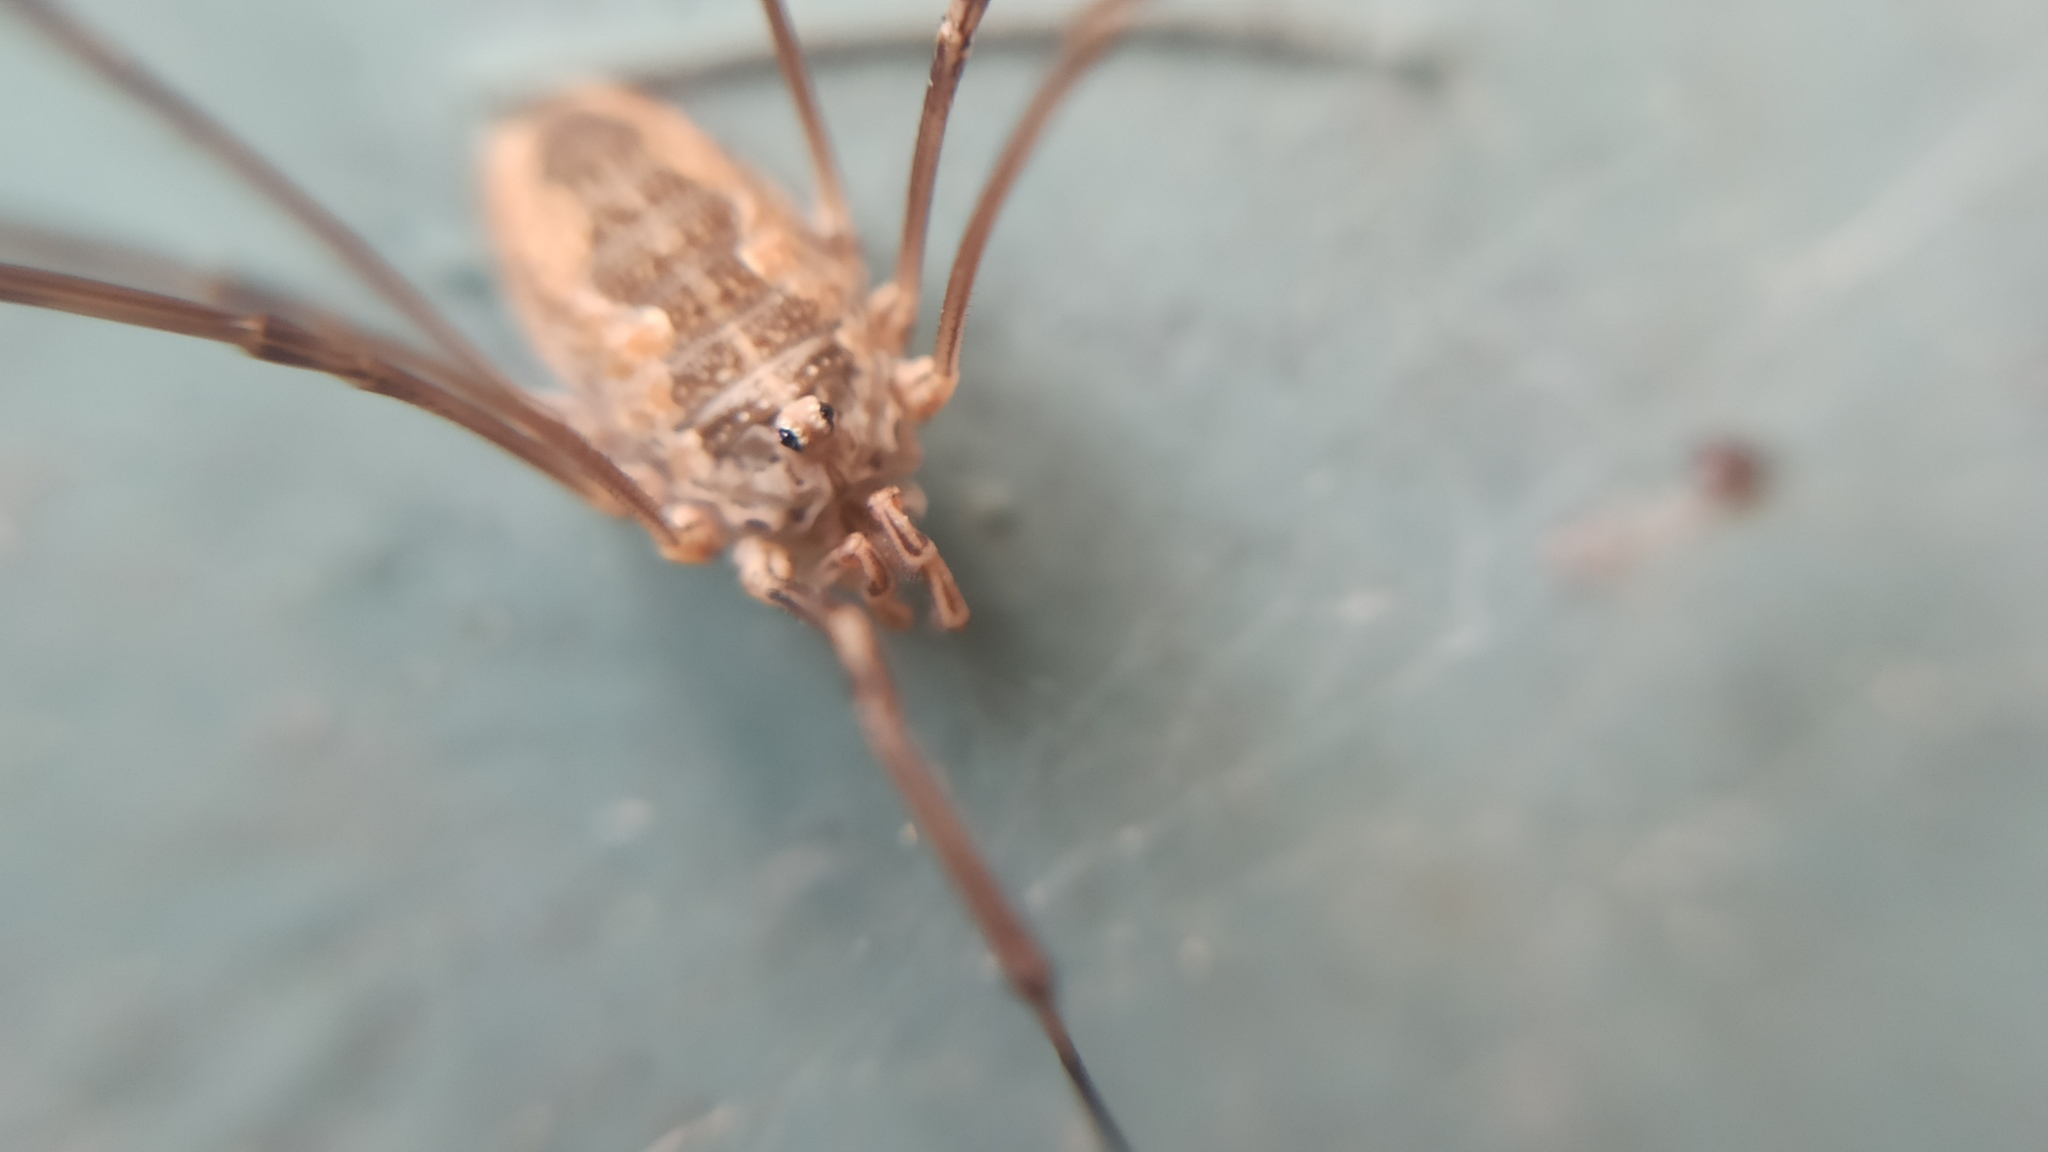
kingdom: Animalia
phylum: Arthropoda
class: Arachnida
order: Opiliones
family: Phalangiidae
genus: Phalangium
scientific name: Phalangium opilio
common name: Daddy longleg
